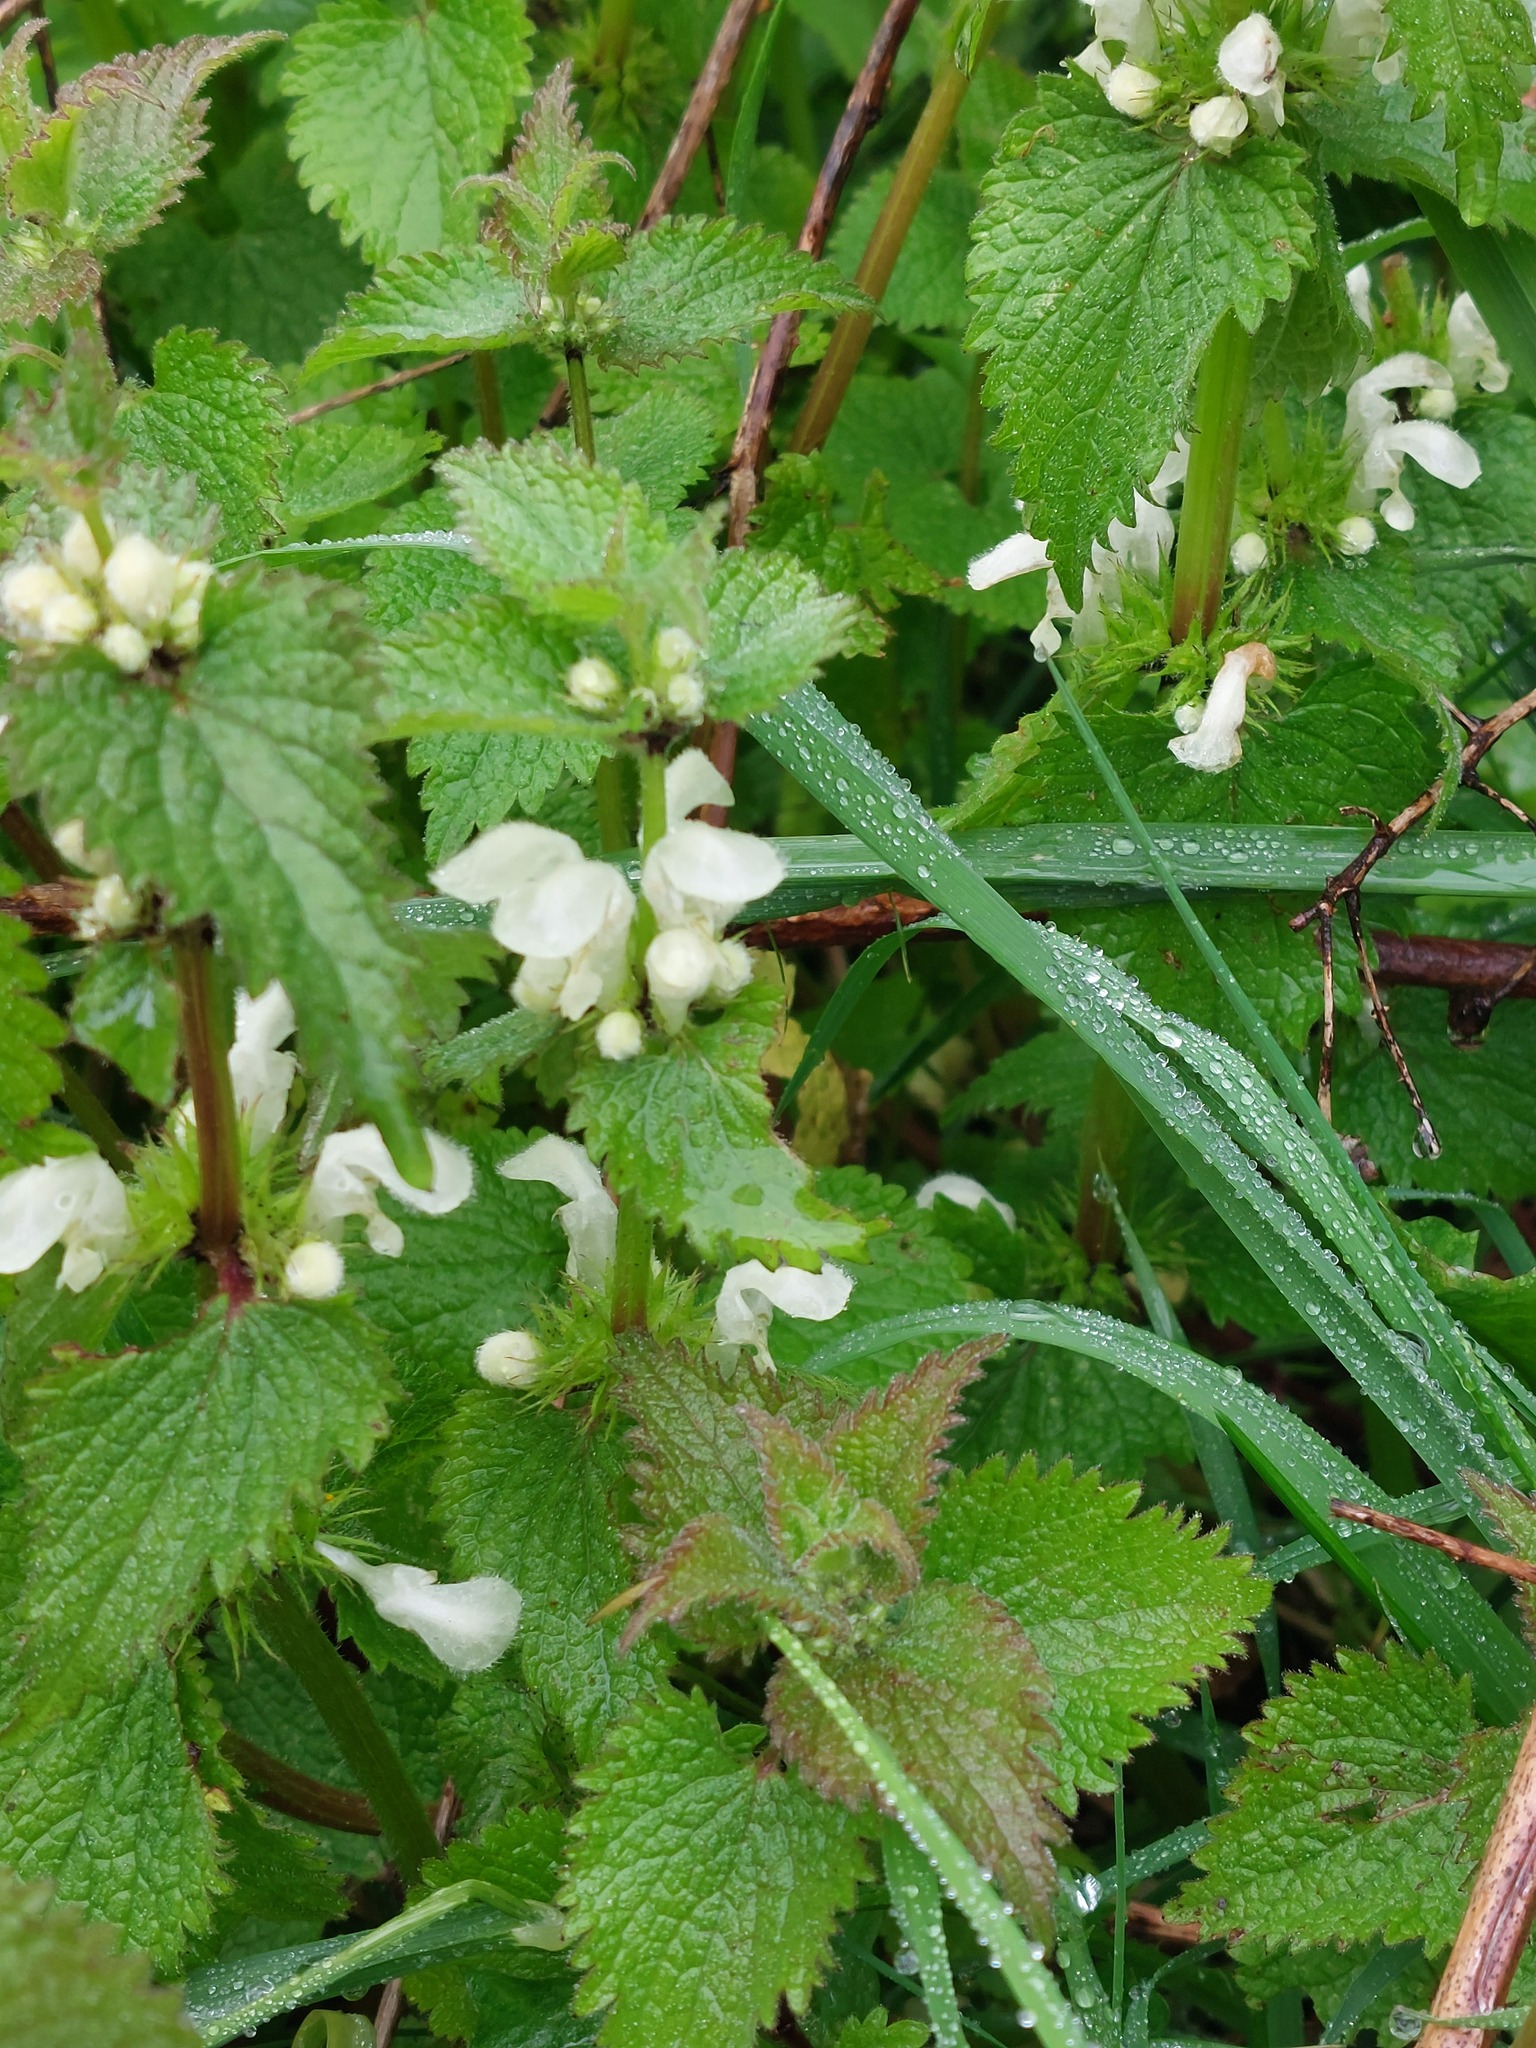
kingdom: Plantae
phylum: Tracheophyta
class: Magnoliopsida
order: Lamiales
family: Lamiaceae
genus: Lamium
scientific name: Lamium album
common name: White dead-nettle
